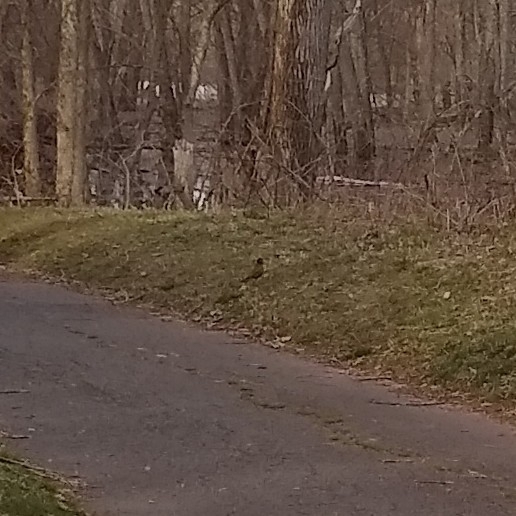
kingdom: Animalia
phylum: Chordata
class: Aves
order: Passeriformes
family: Turdidae
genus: Turdus
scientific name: Turdus migratorius
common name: American robin
